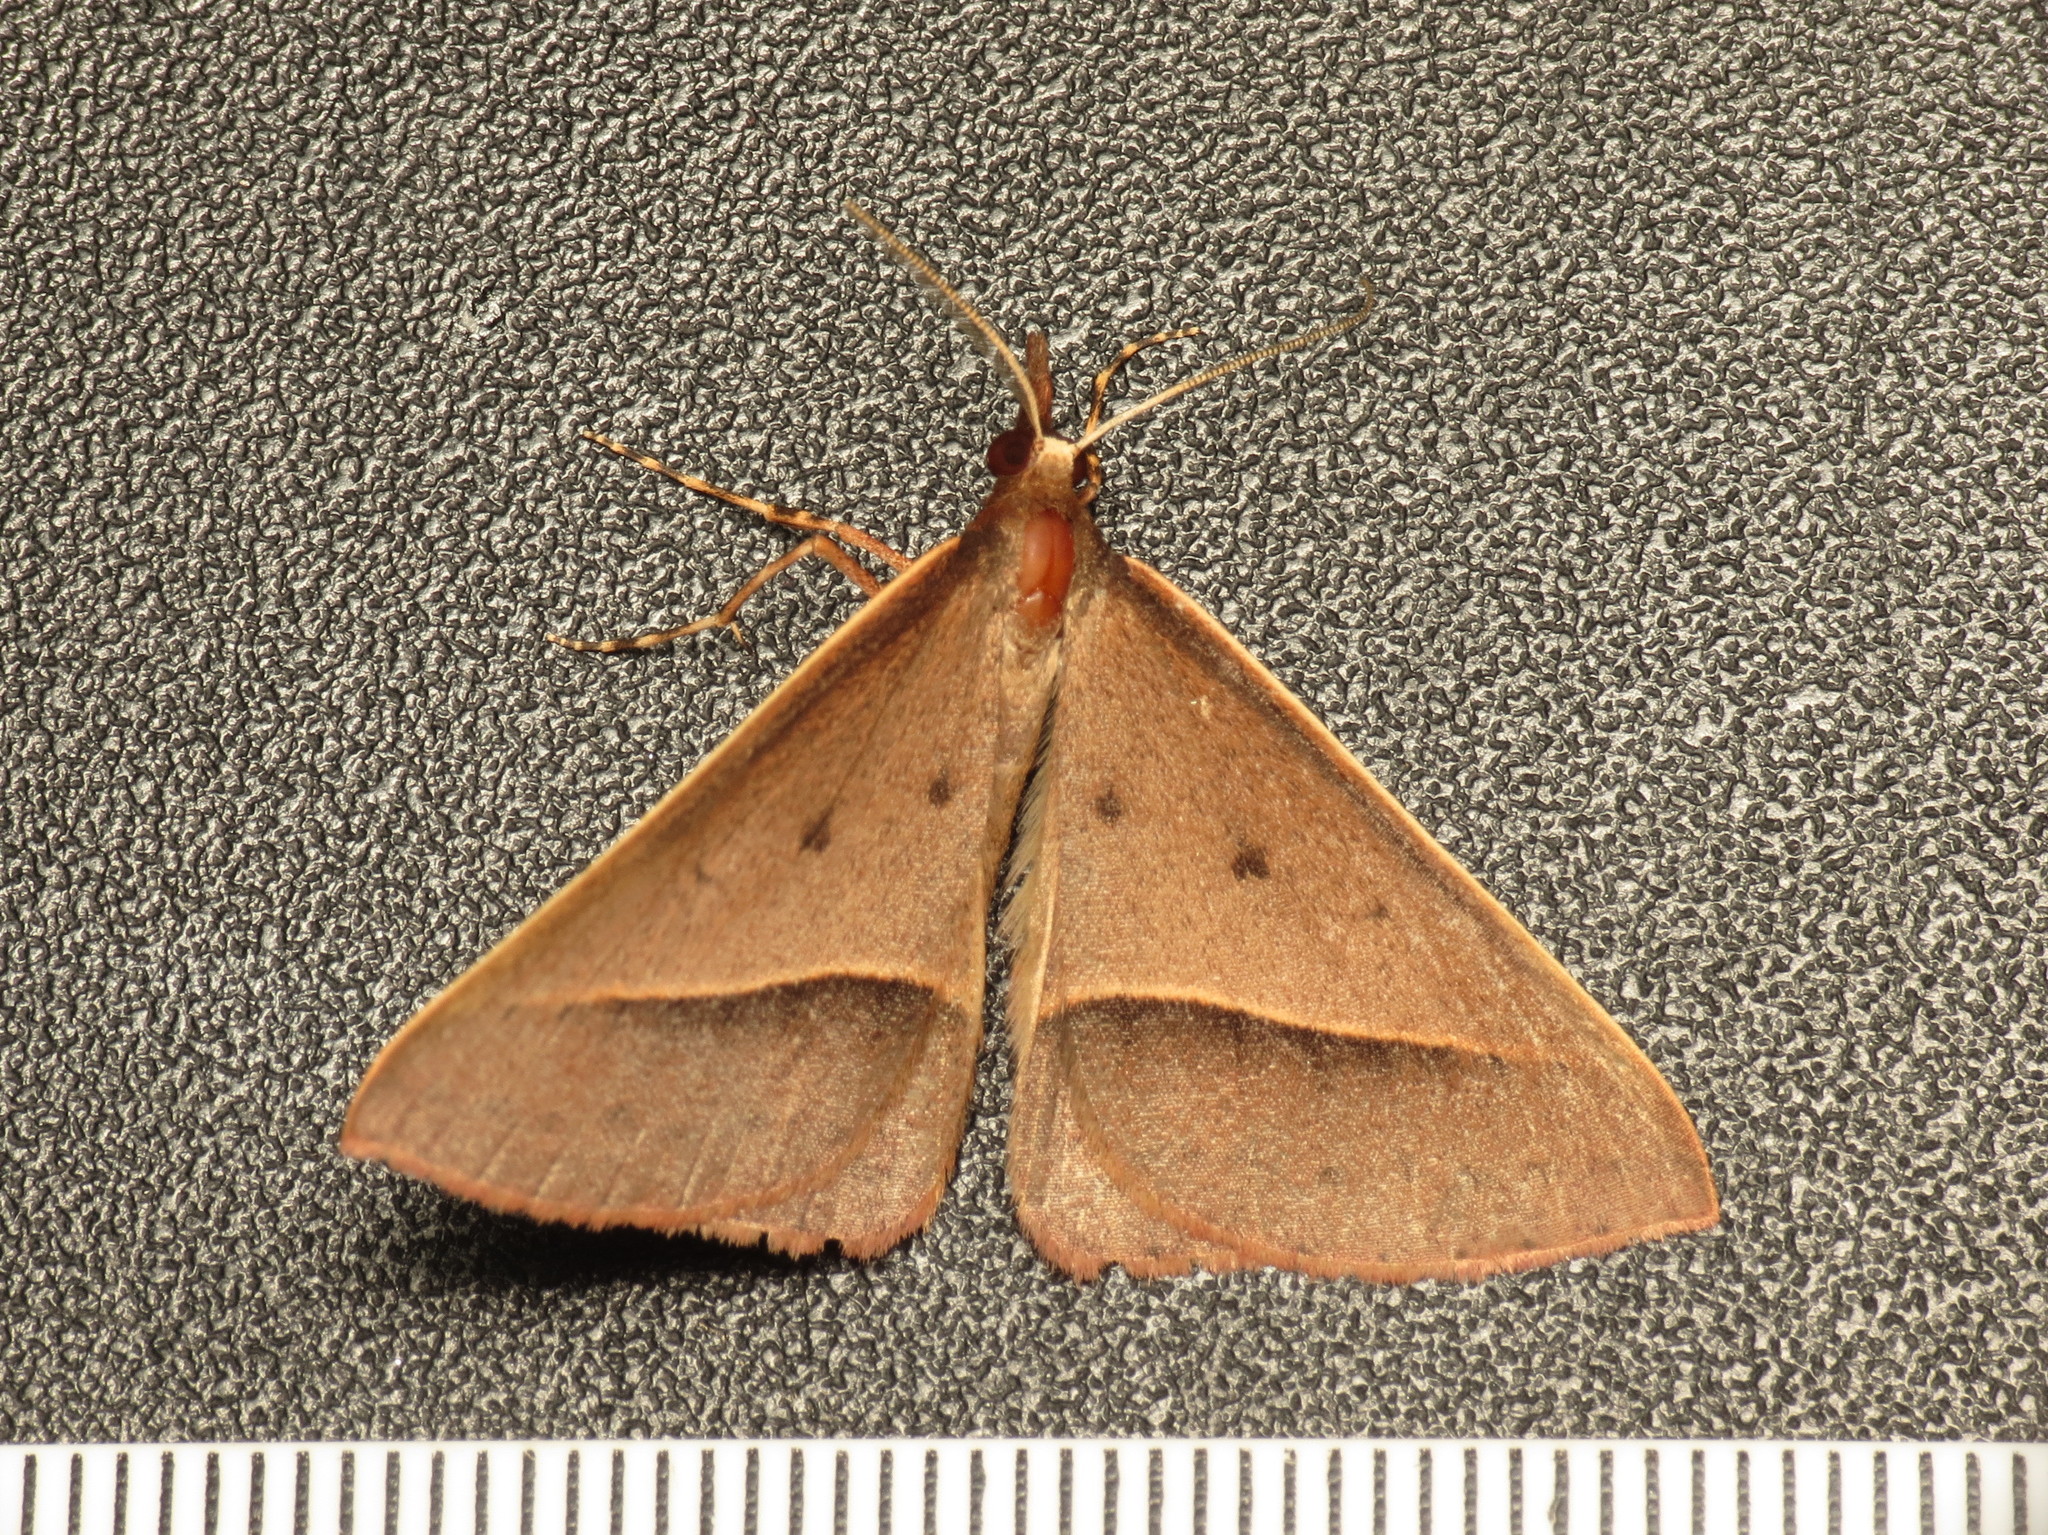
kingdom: Animalia
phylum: Arthropoda
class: Insecta
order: Lepidoptera
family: Geometridae
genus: Epidesmia
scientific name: Epidesmia chilonaria
